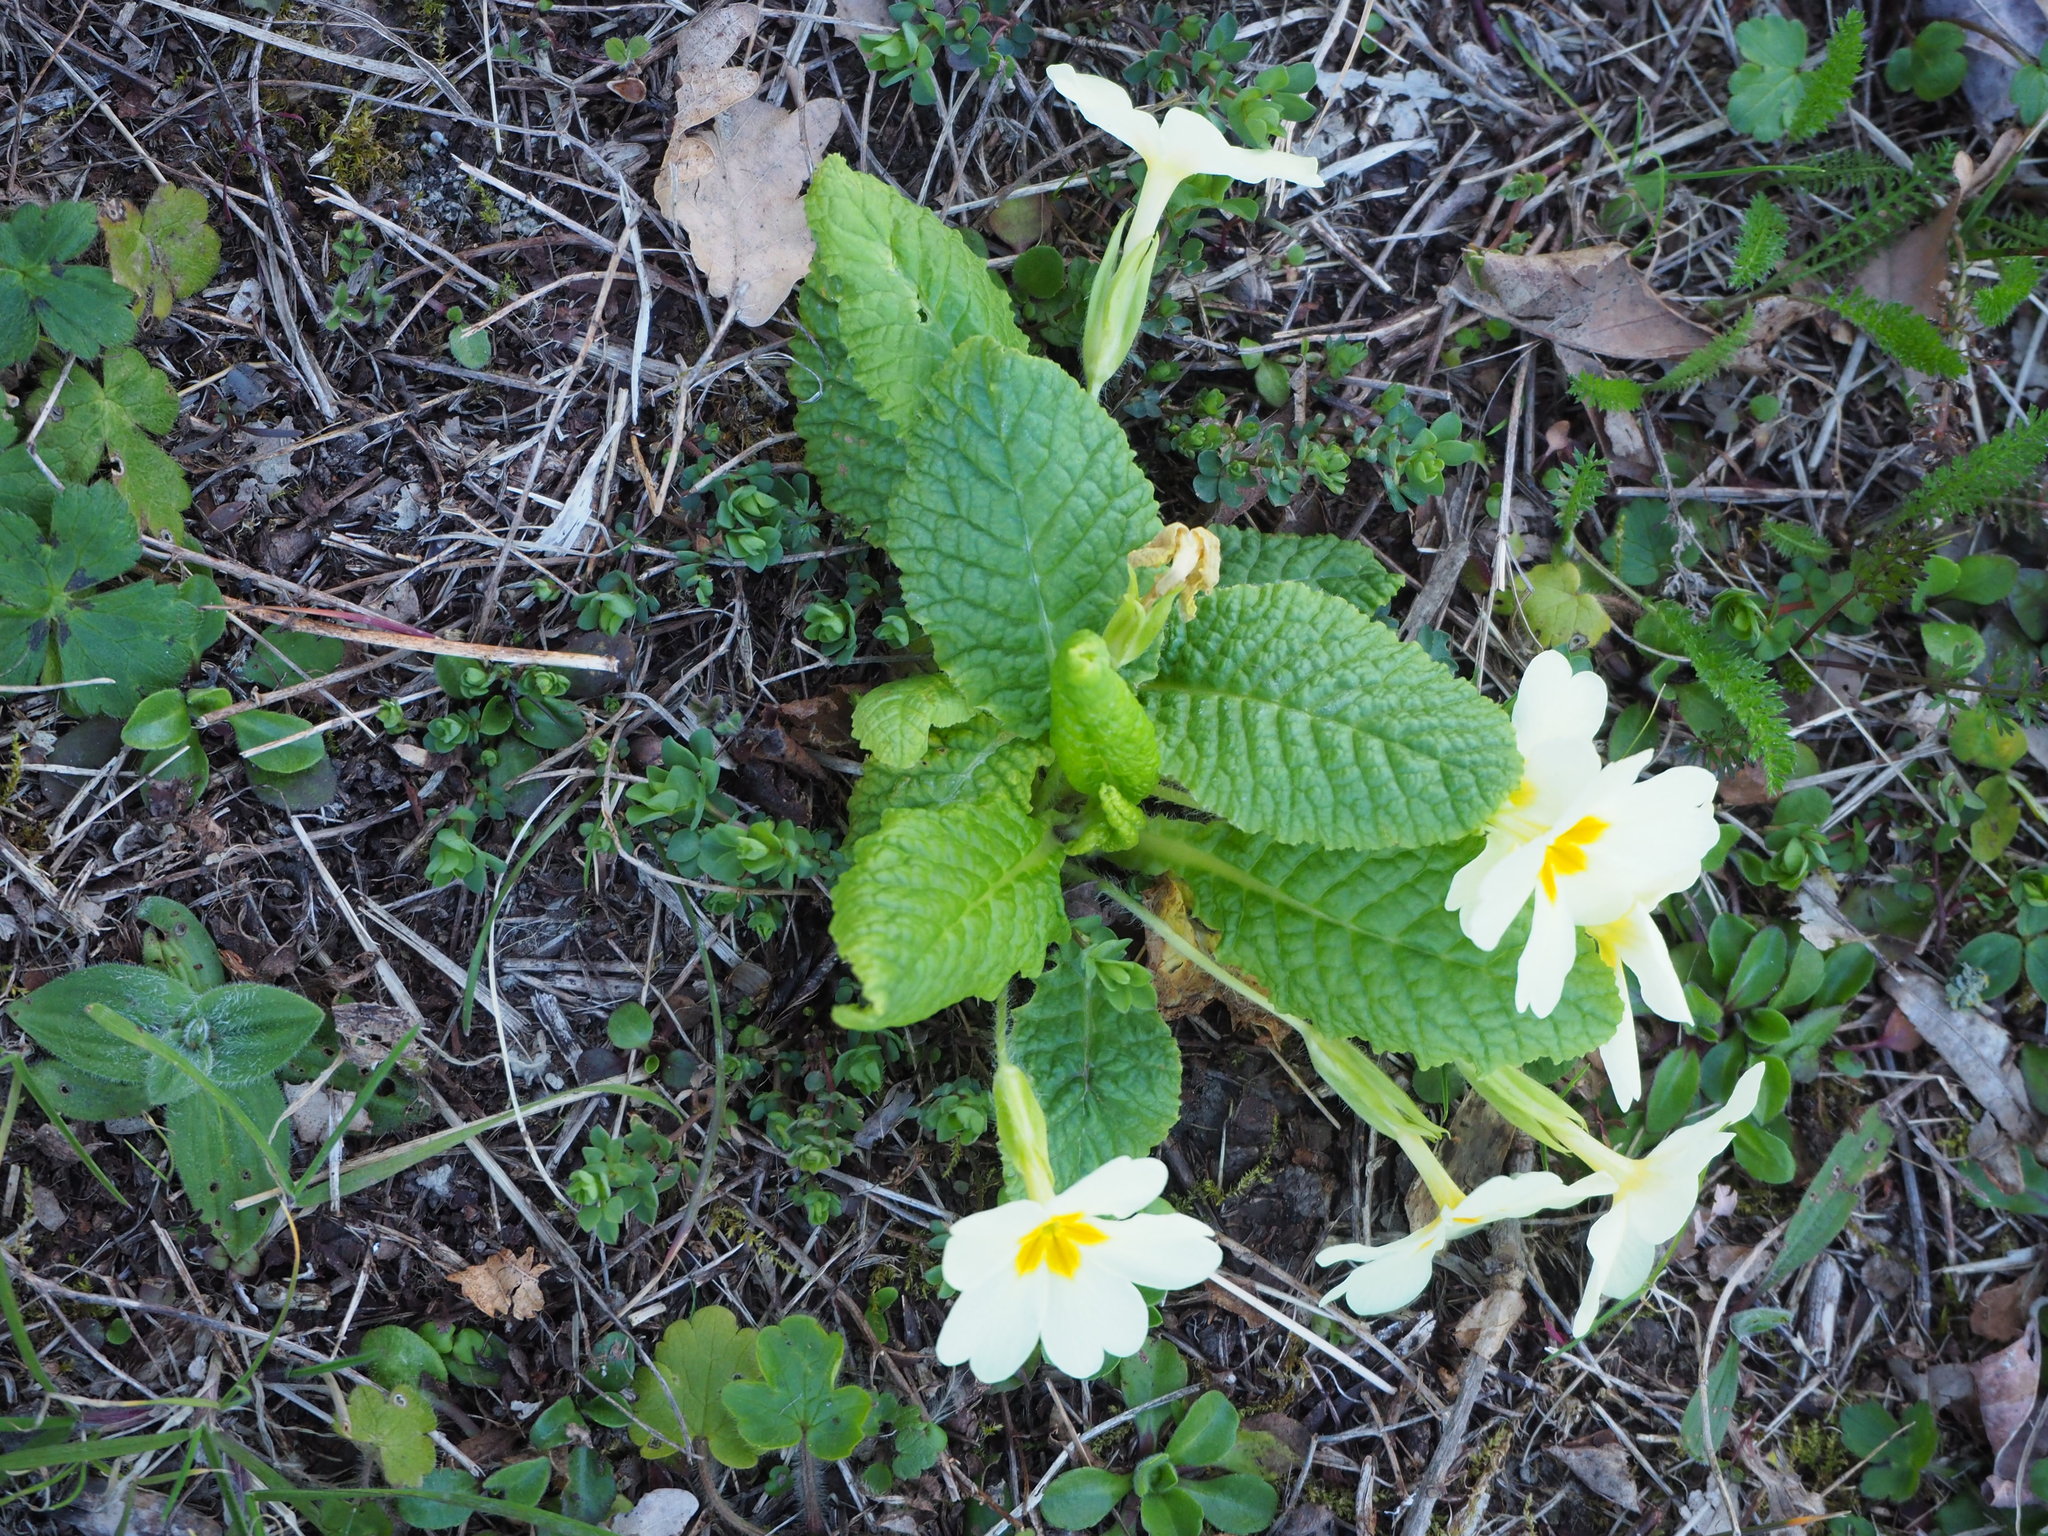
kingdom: Plantae
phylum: Tracheophyta
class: Magnoliopsida
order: Ericales
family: Primulaceae
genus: Primula
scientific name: Primula vulgaris
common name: Primrose
